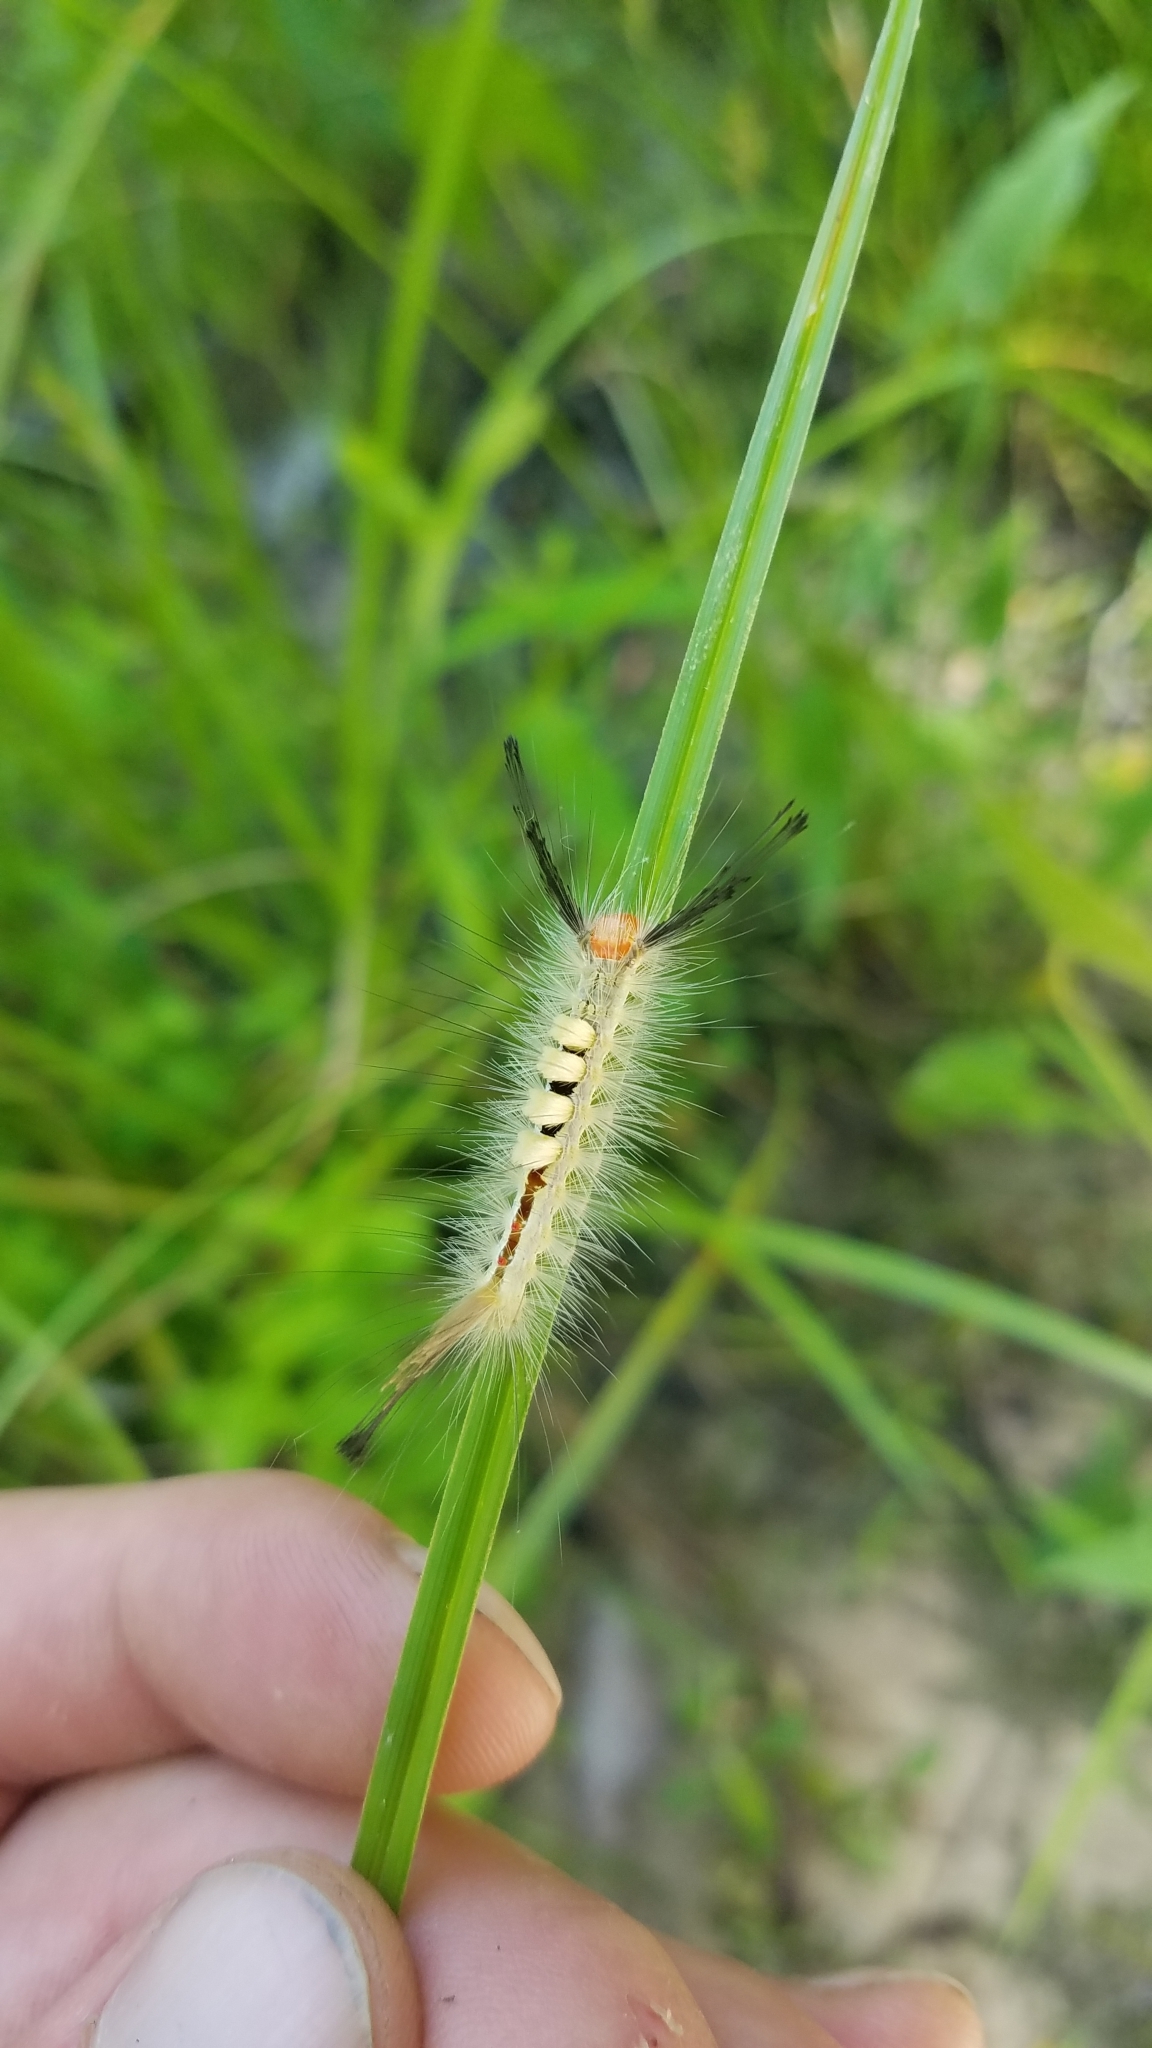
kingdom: Animalia
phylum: Arthropoda
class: Insecta
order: Lepidoptera
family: Erebidae
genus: Orgyia
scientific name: Orgyia leucostigma
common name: White-marked tussock moth
